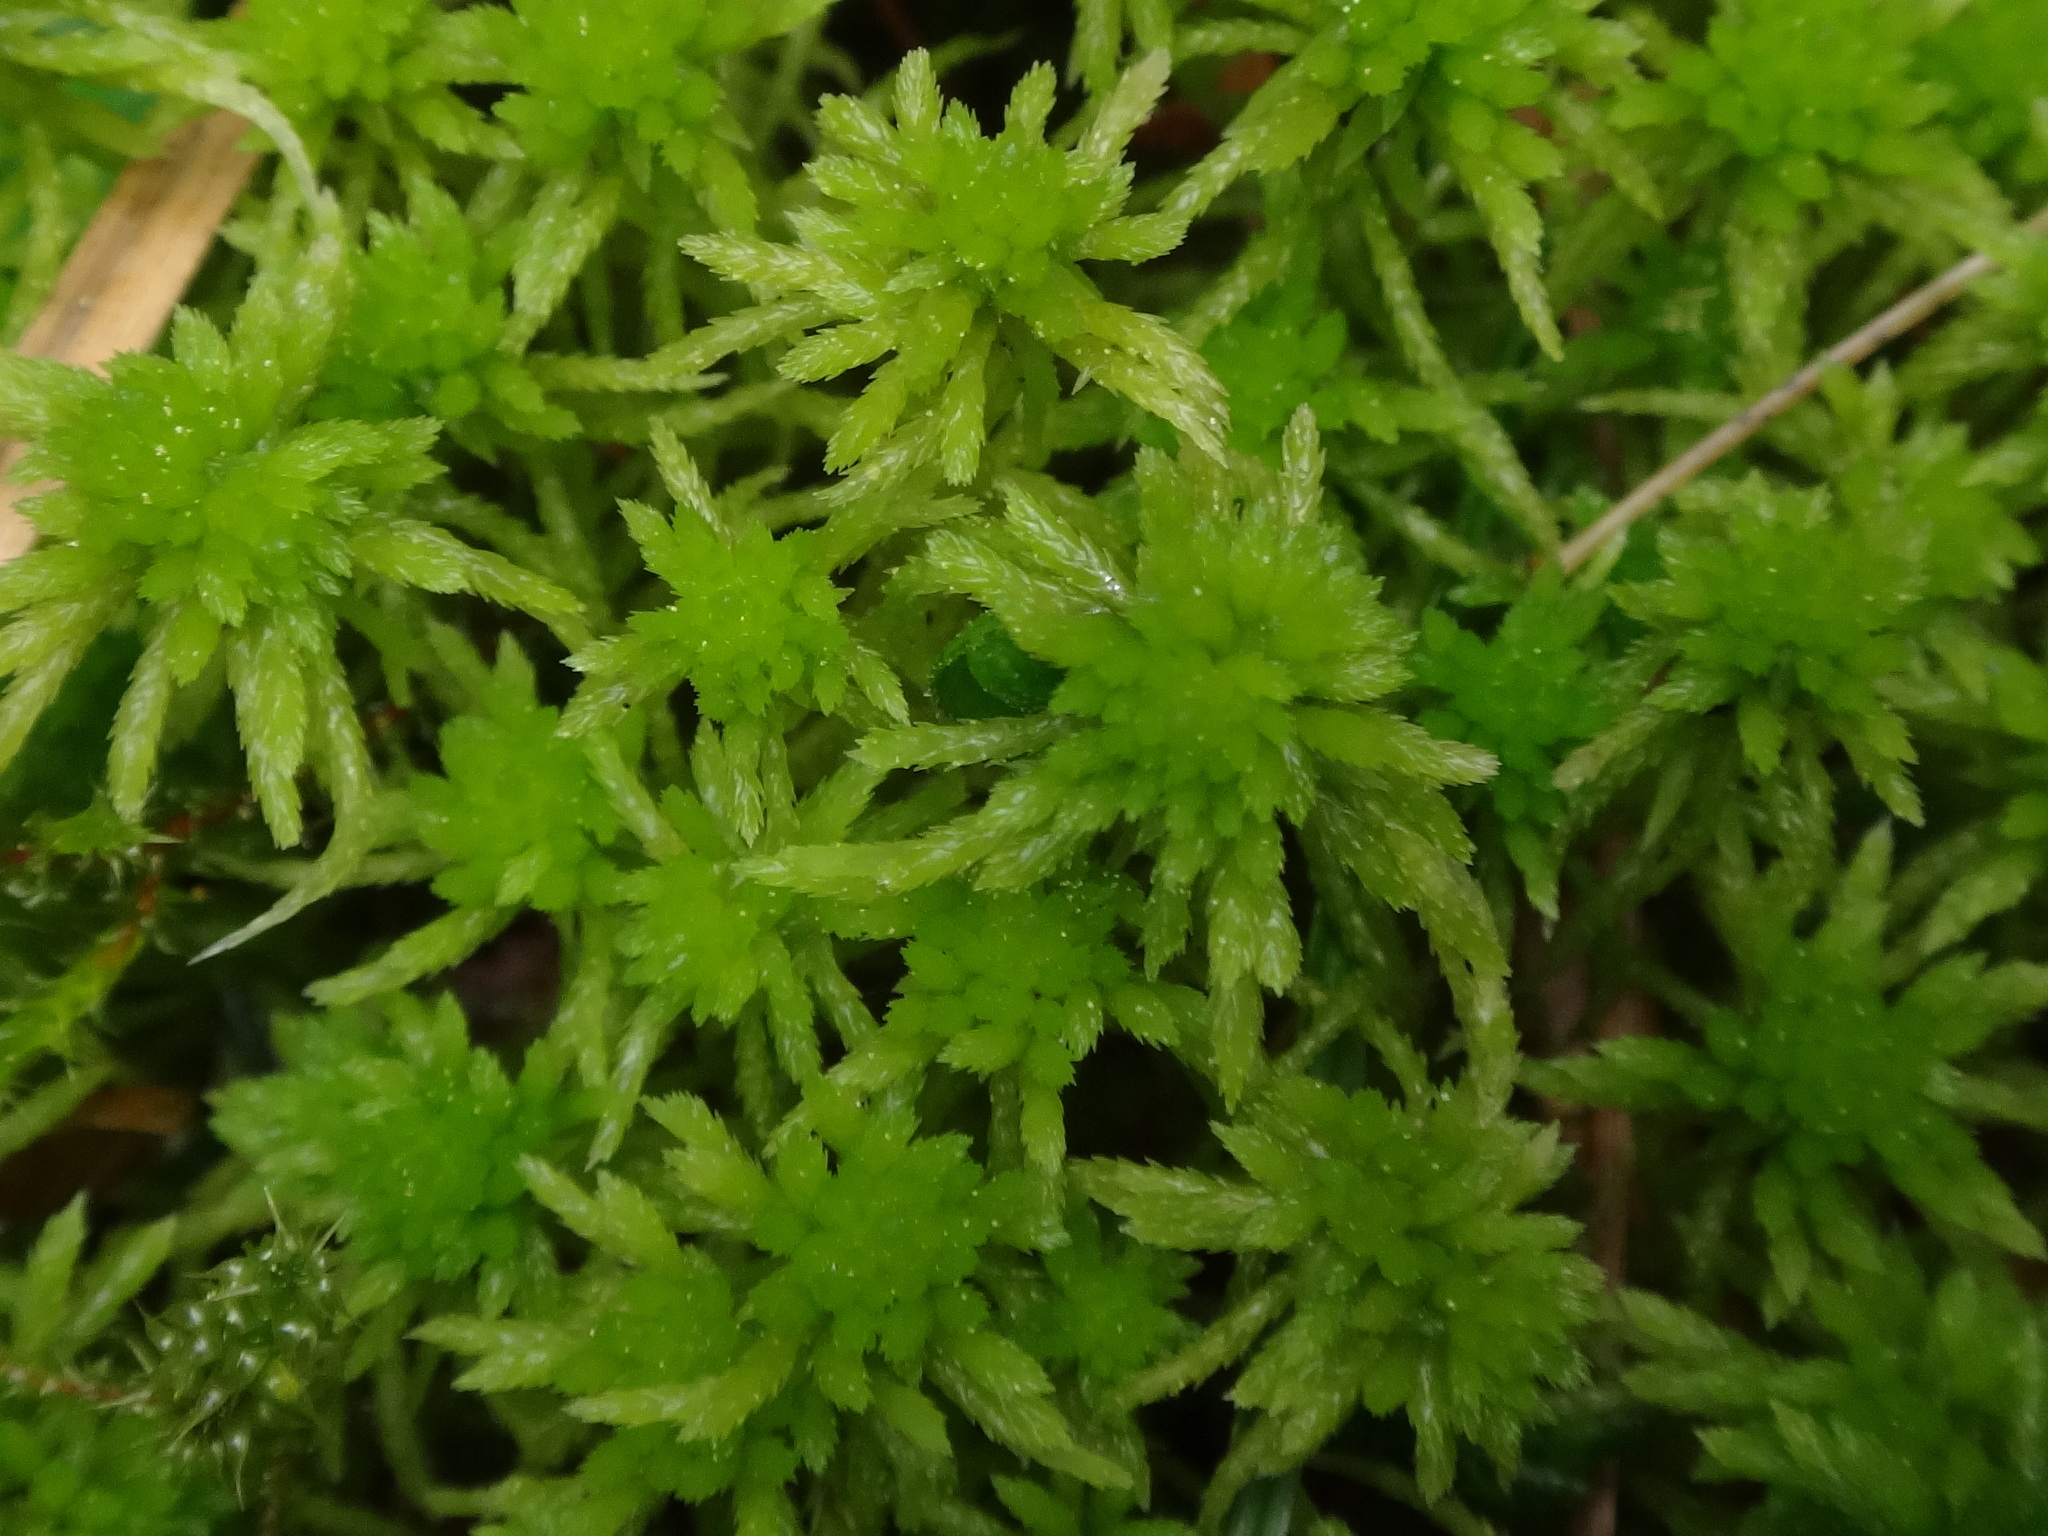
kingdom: Plantae
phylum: Bryophyta
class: Sphagnopsida
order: Sphagnales
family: Sphagnaceae
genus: Sphagnum
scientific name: Sphagnum girgensohnii
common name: Girgensohn's peat moss
